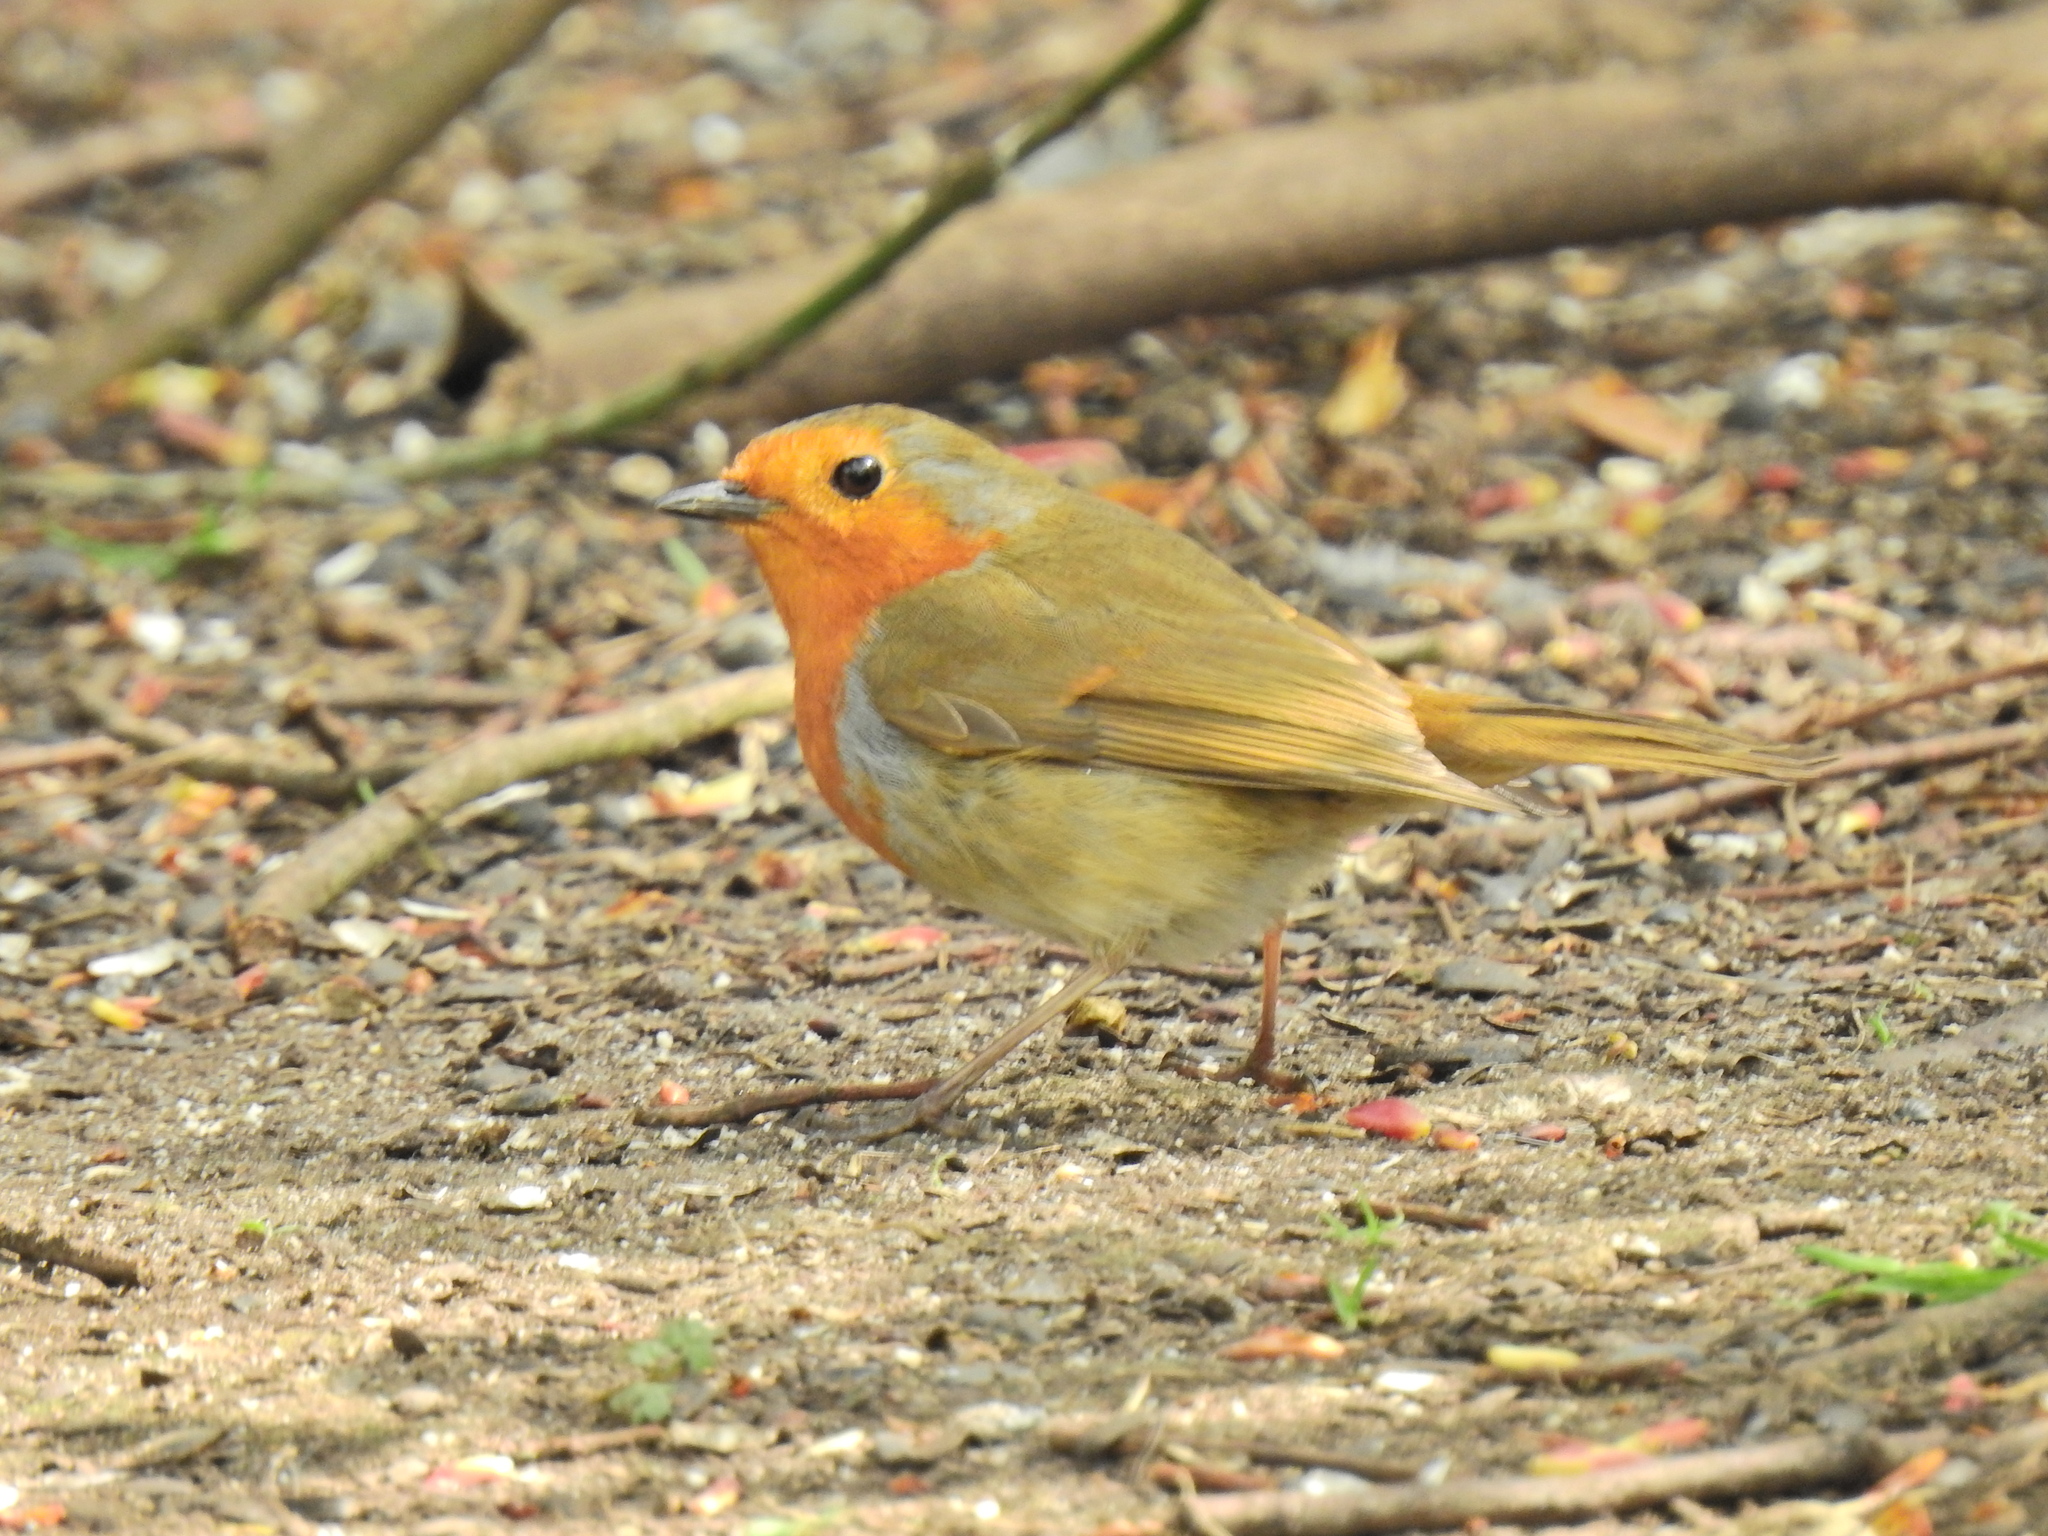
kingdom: Animalia
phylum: Chordata
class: Aves
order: Passeriformes
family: Muscicapidae
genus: Erithacus
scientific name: Erithacus rubecula
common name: European robin
